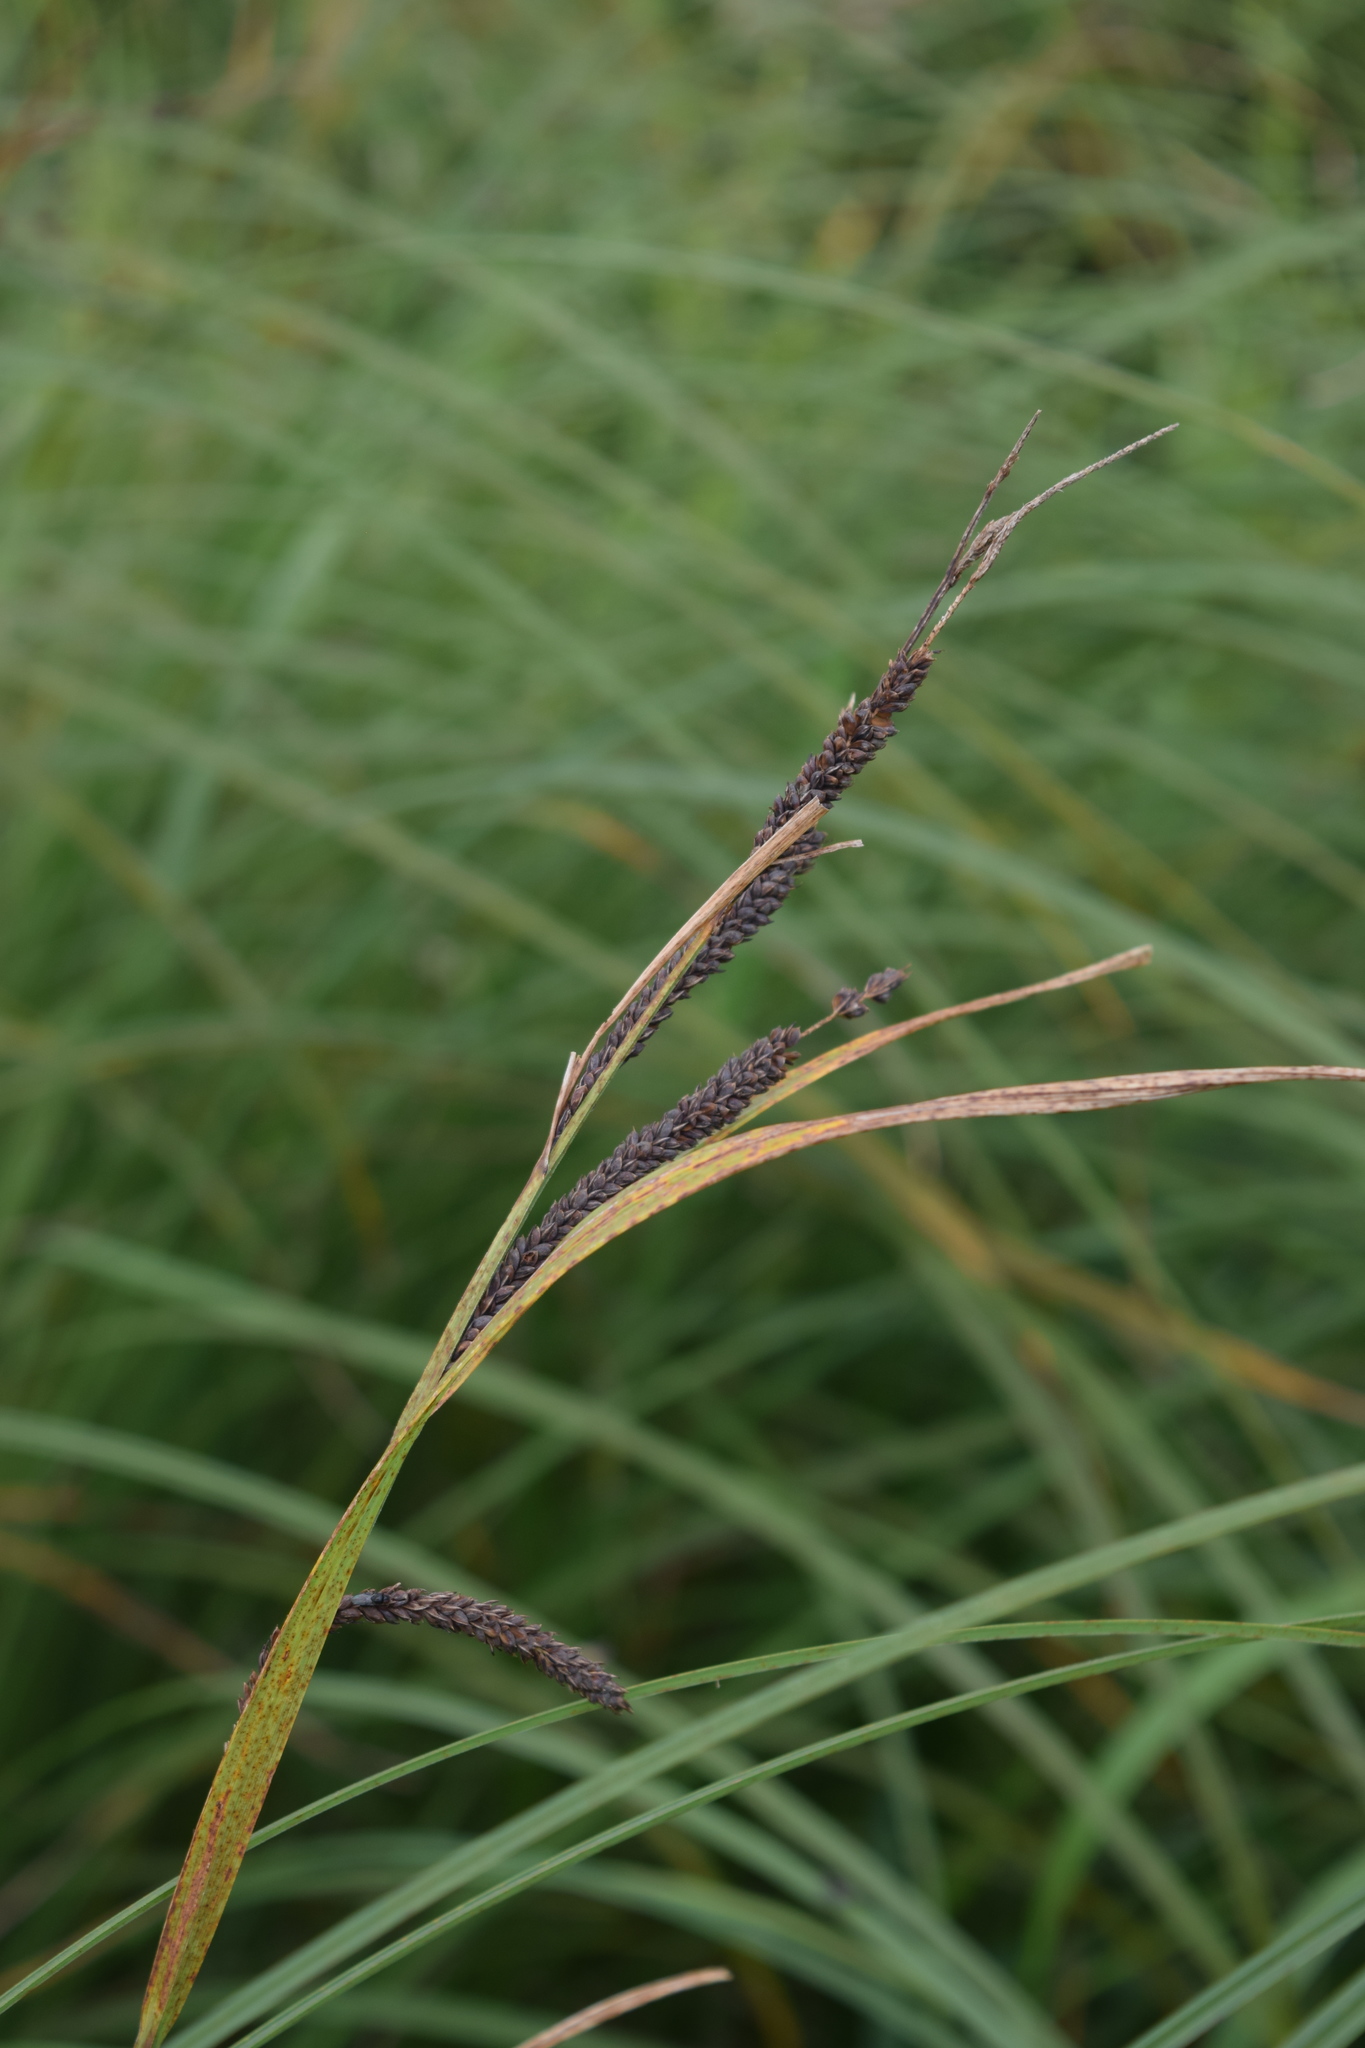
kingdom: Plantae
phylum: Tracheophyta
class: Liliopsida
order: Poales
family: Cyperaceae
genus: Carex
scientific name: Carex acuta
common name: Slender tufted-sedge
